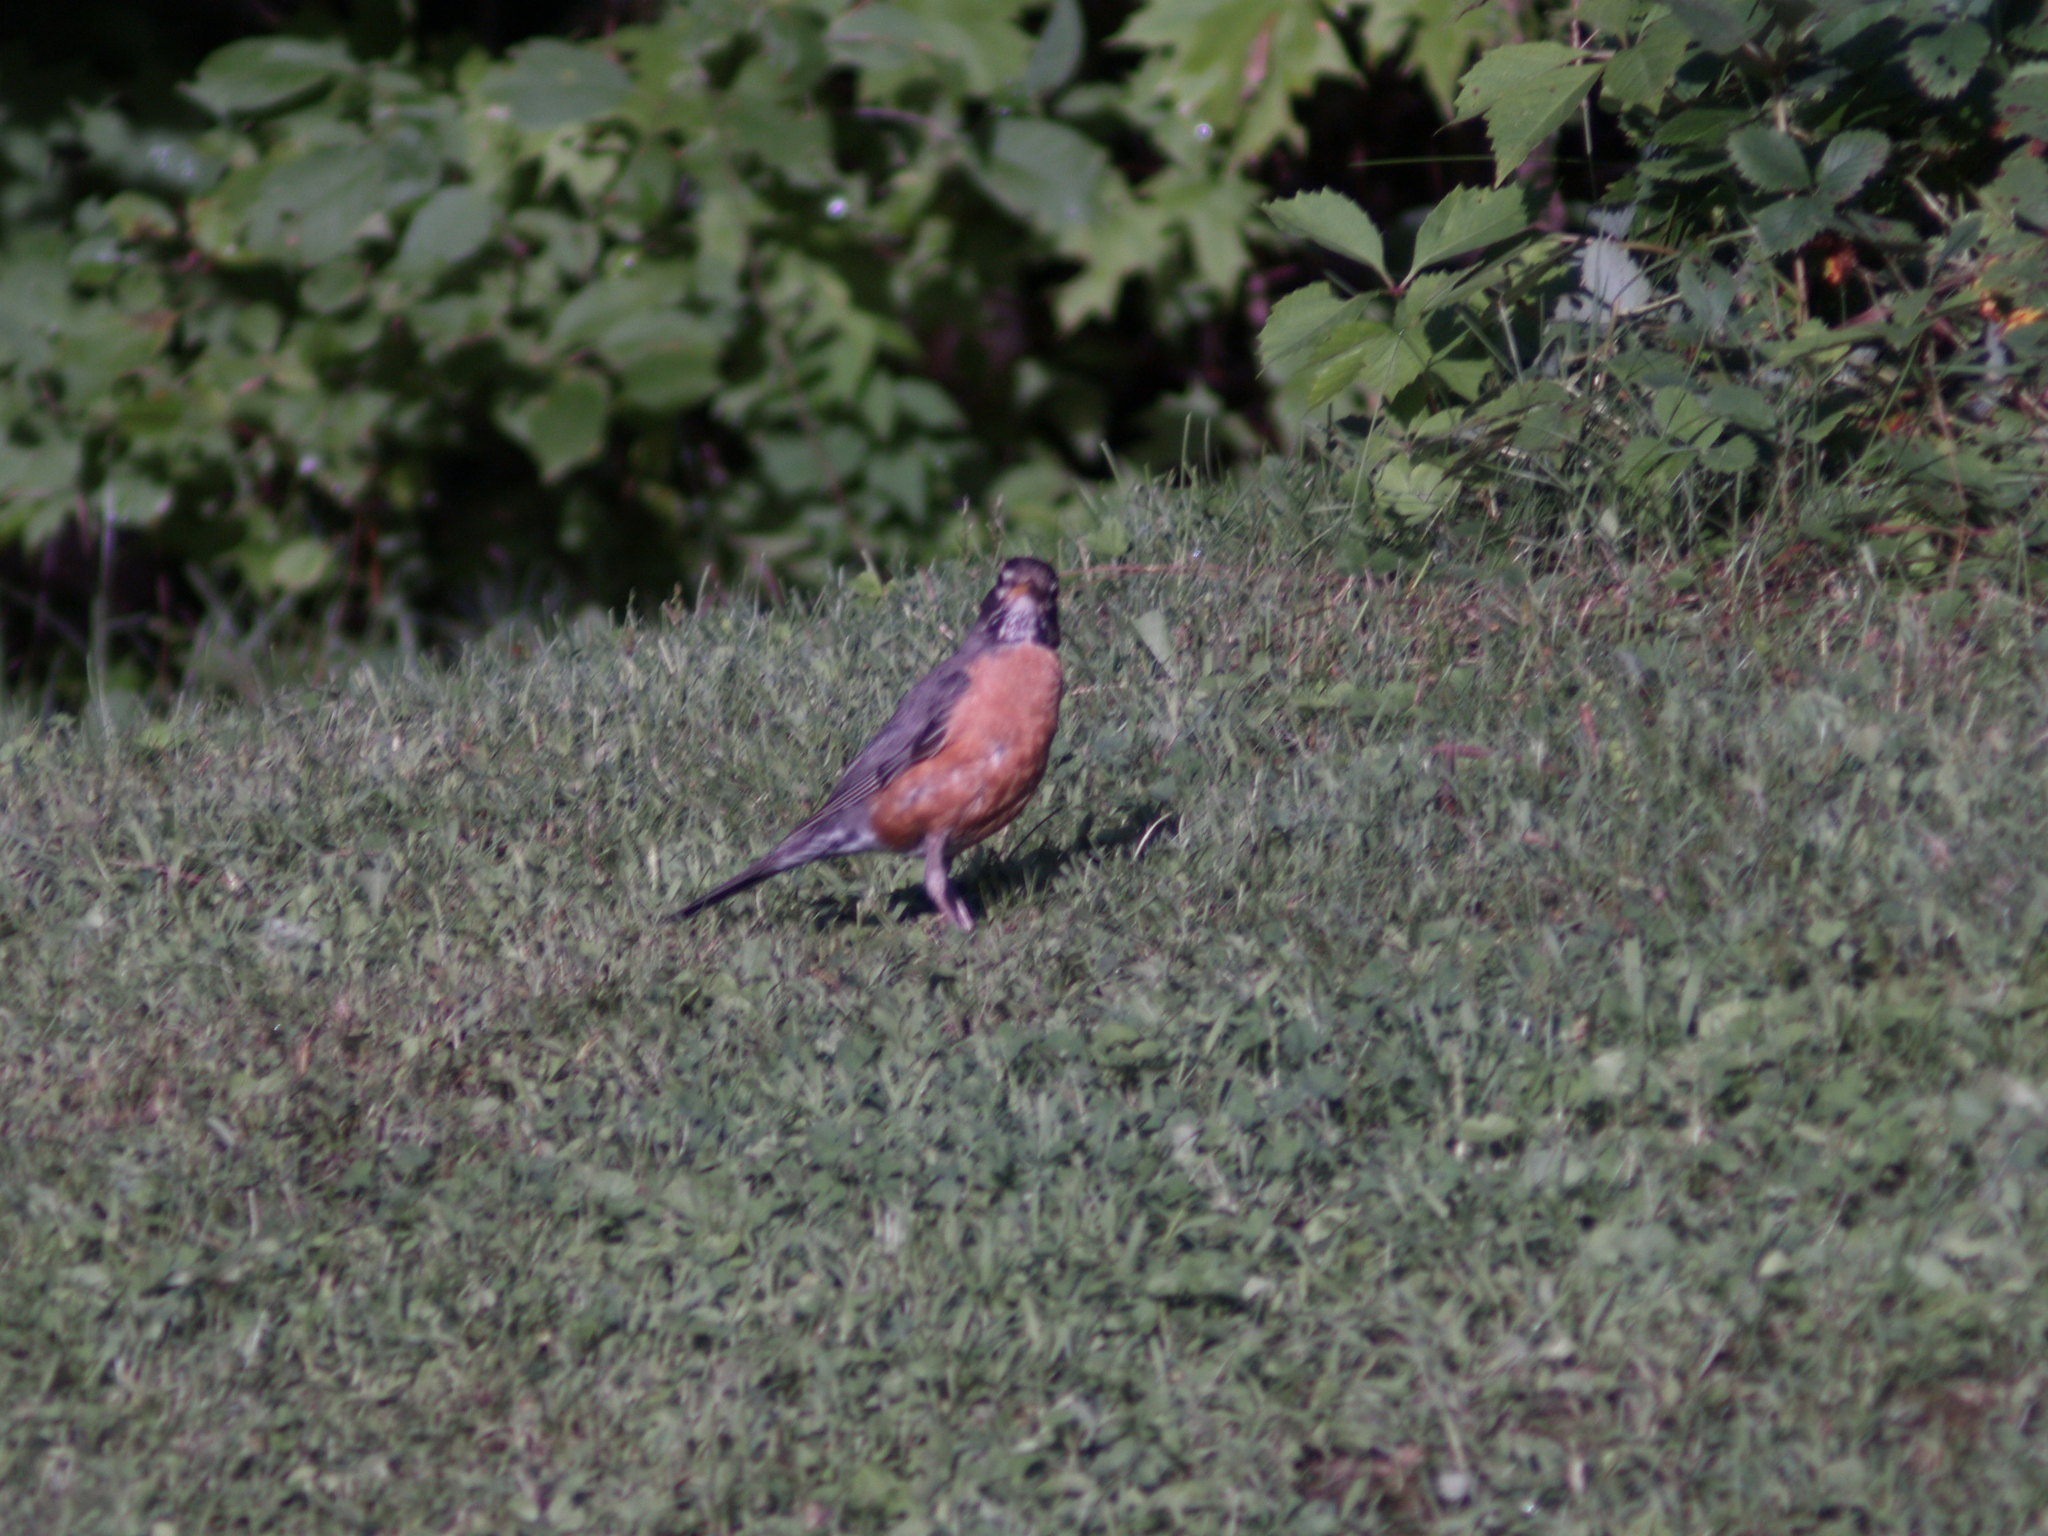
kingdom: Animalia
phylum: Chordata
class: Aves
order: Passeriformes
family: Turdidae
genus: Turdus
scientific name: Turdus migratorius
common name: American robin
